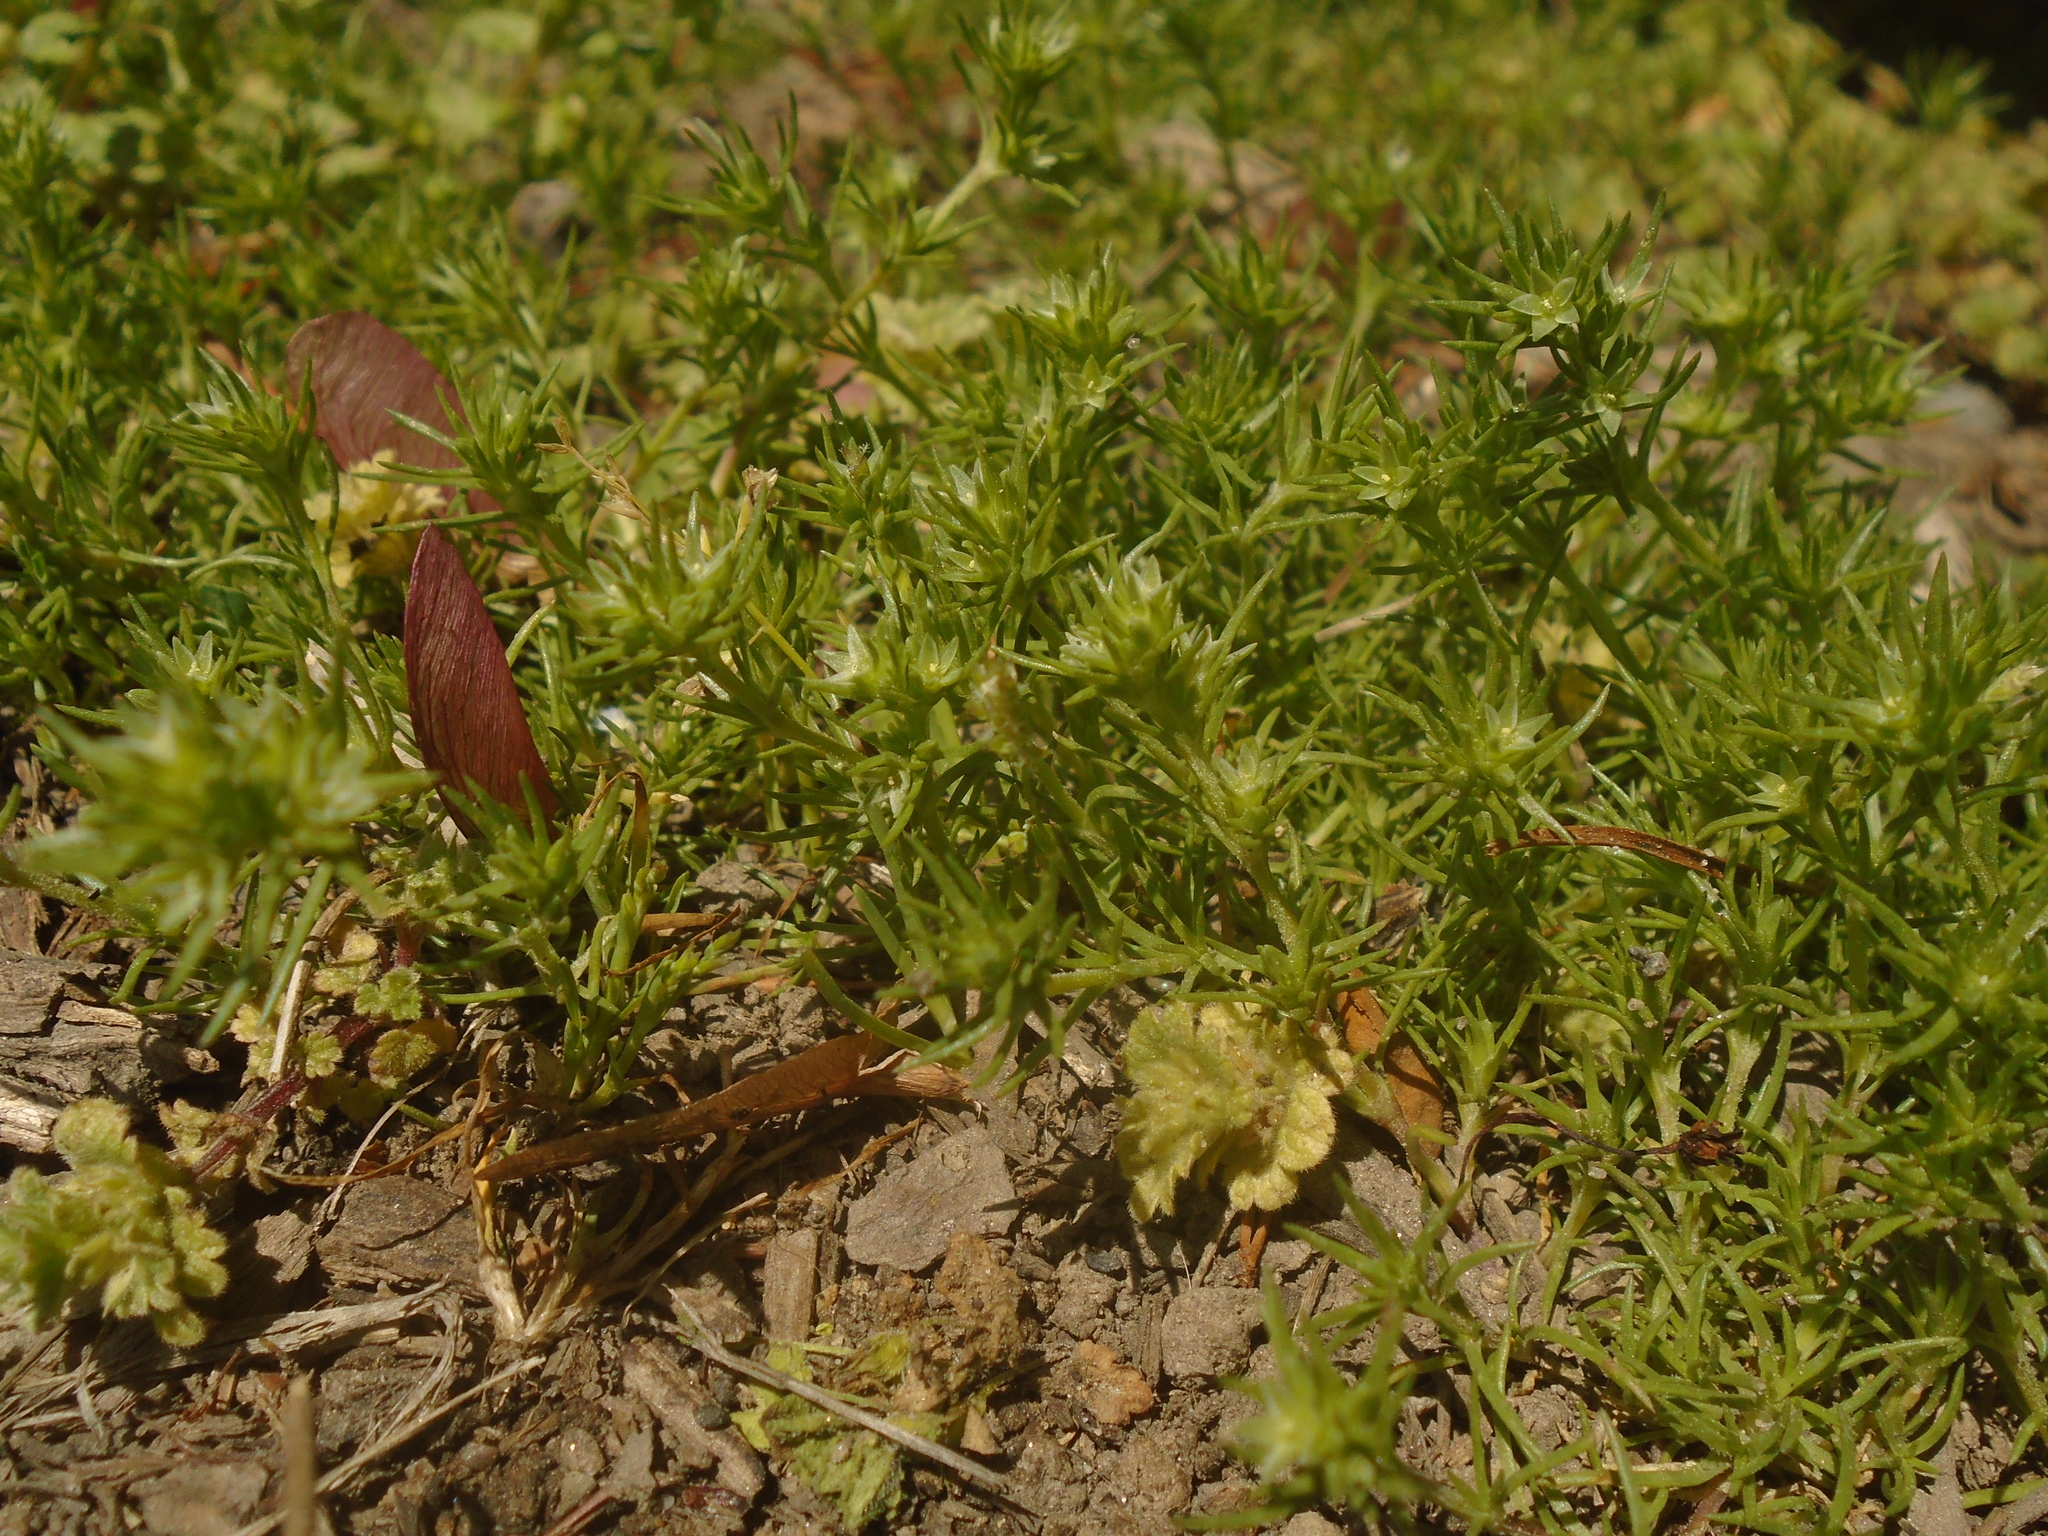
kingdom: Plantae
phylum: Tracheophyta
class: Magnoliopsida
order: Caryophyllales
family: Caryophyllaceae
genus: Scleranthus
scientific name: Scleranthus annuus
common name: Annual knawel
